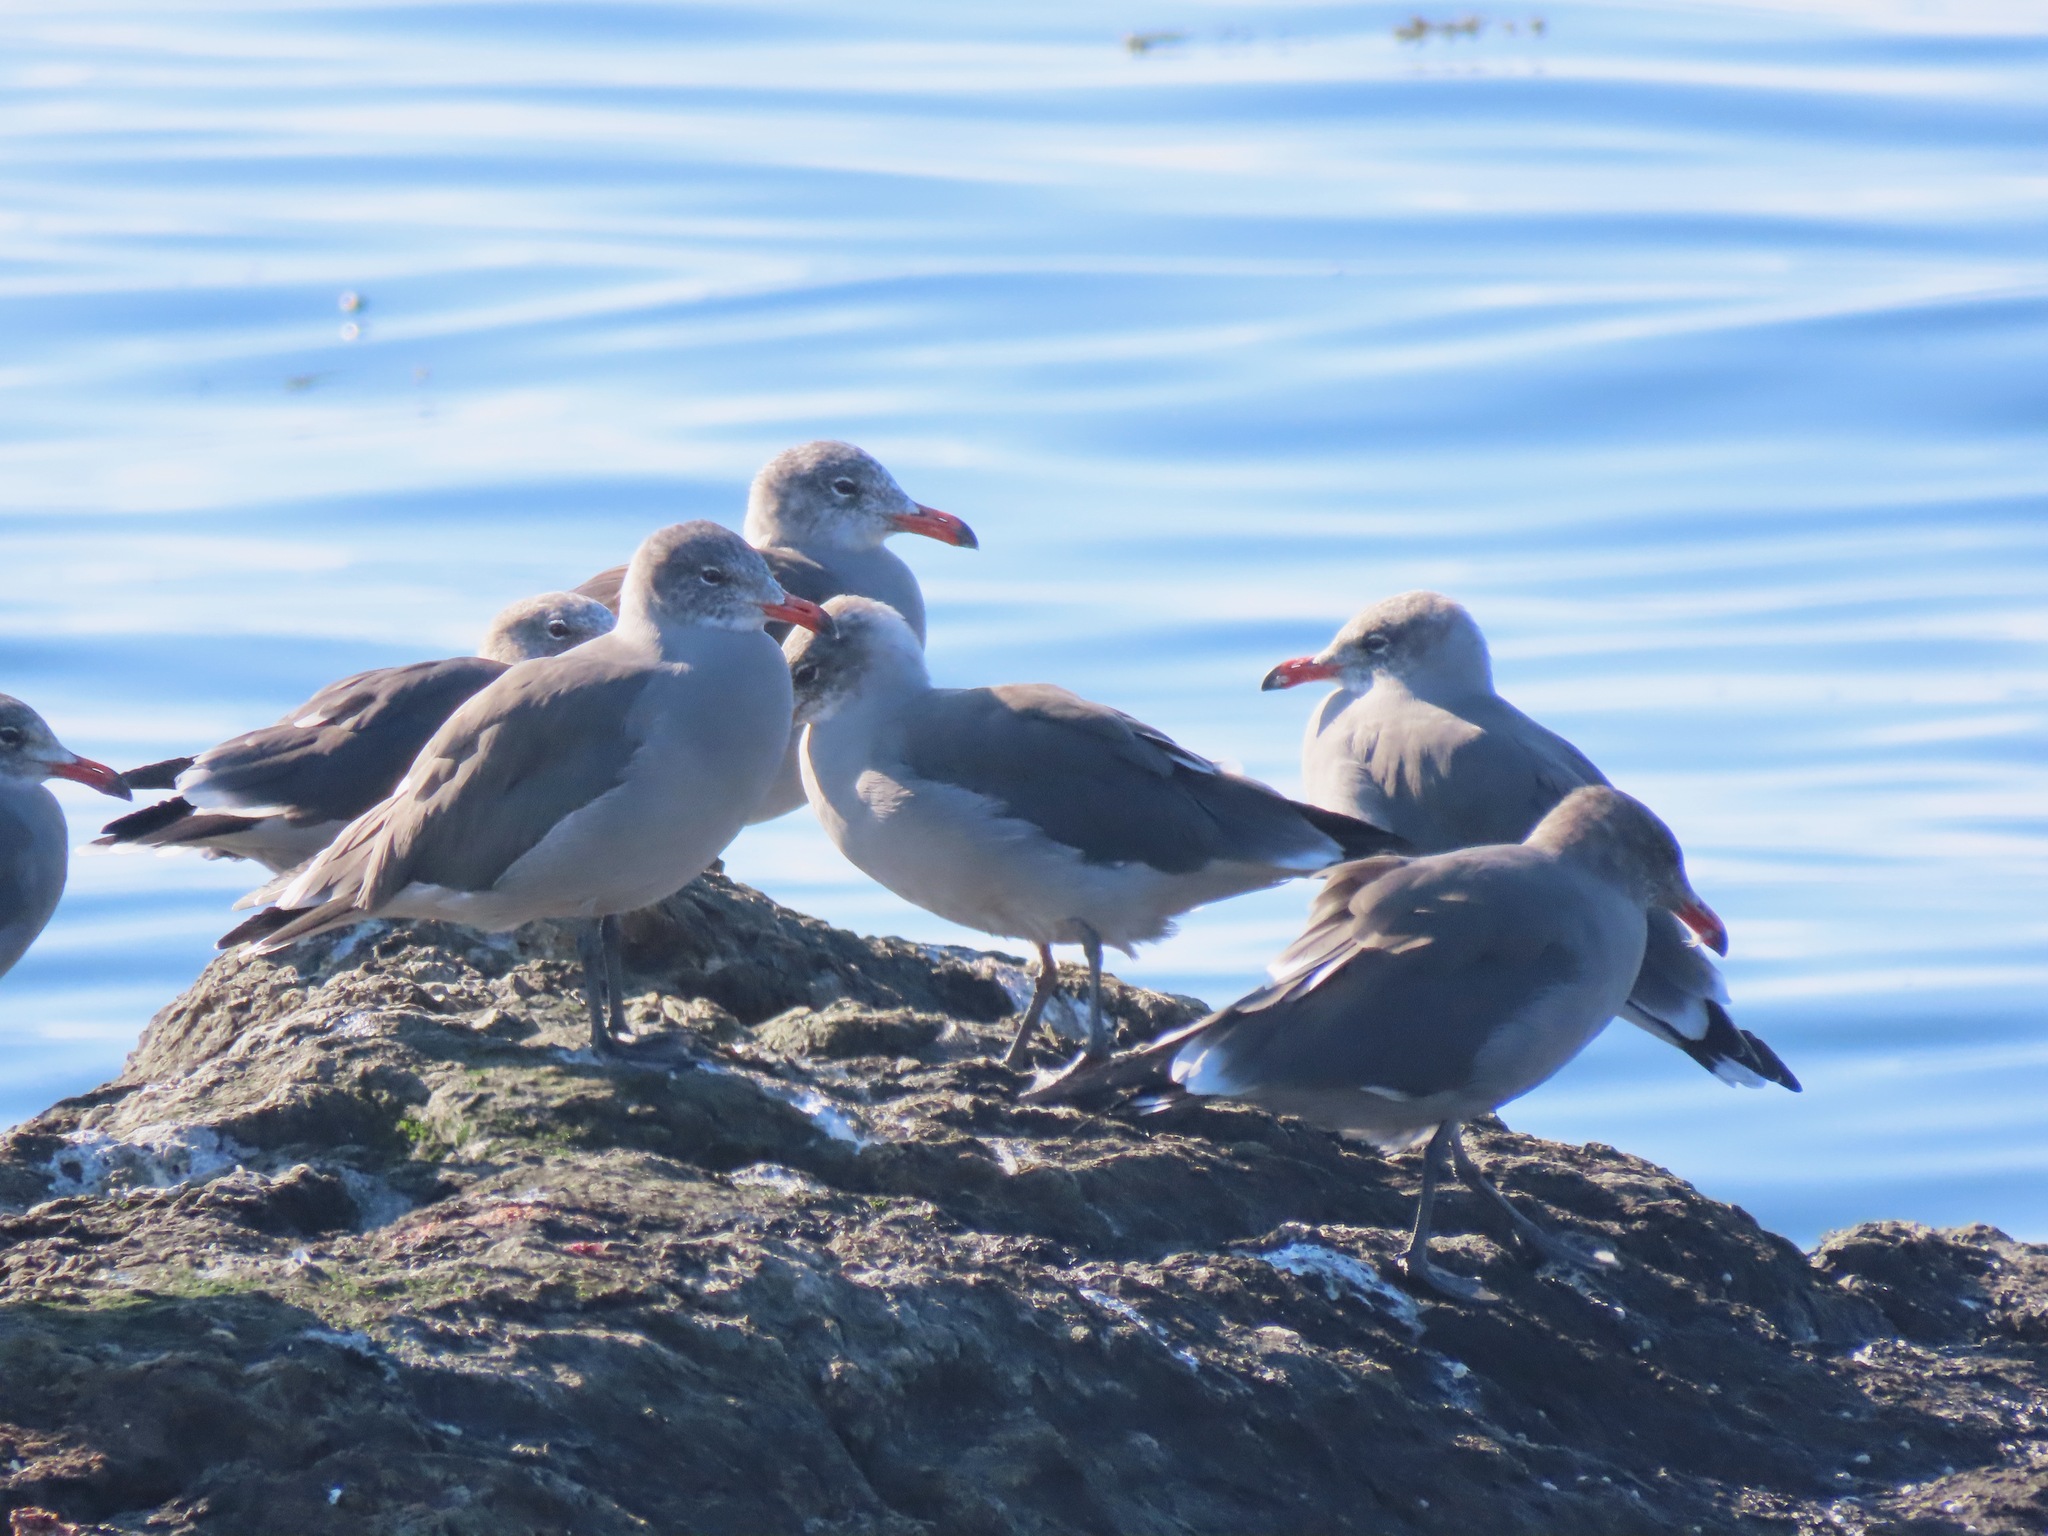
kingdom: Animalia
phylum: Chordata
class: Aves
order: Charadriiformes
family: Laridae
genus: Larus
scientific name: Larus heermanni
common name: Heermann's gull
